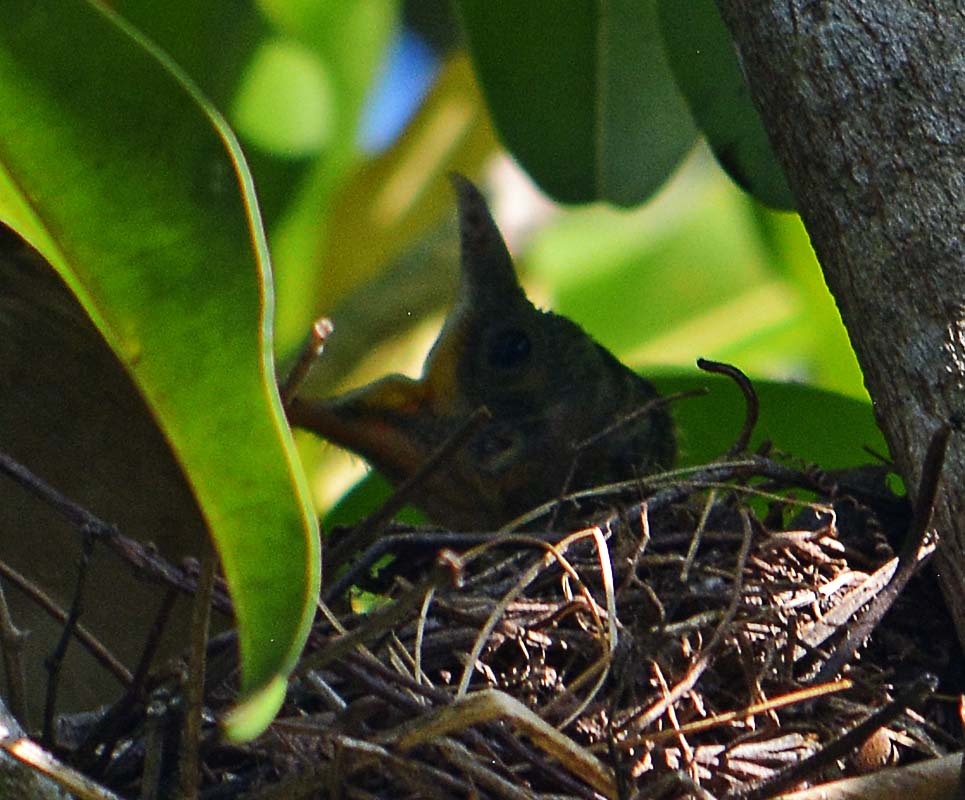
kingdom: Animalia
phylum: Chordata
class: Aves
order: Passeriformes
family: Turdidae
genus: Turdus
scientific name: Turdus grayi
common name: Clay-colored thrush
